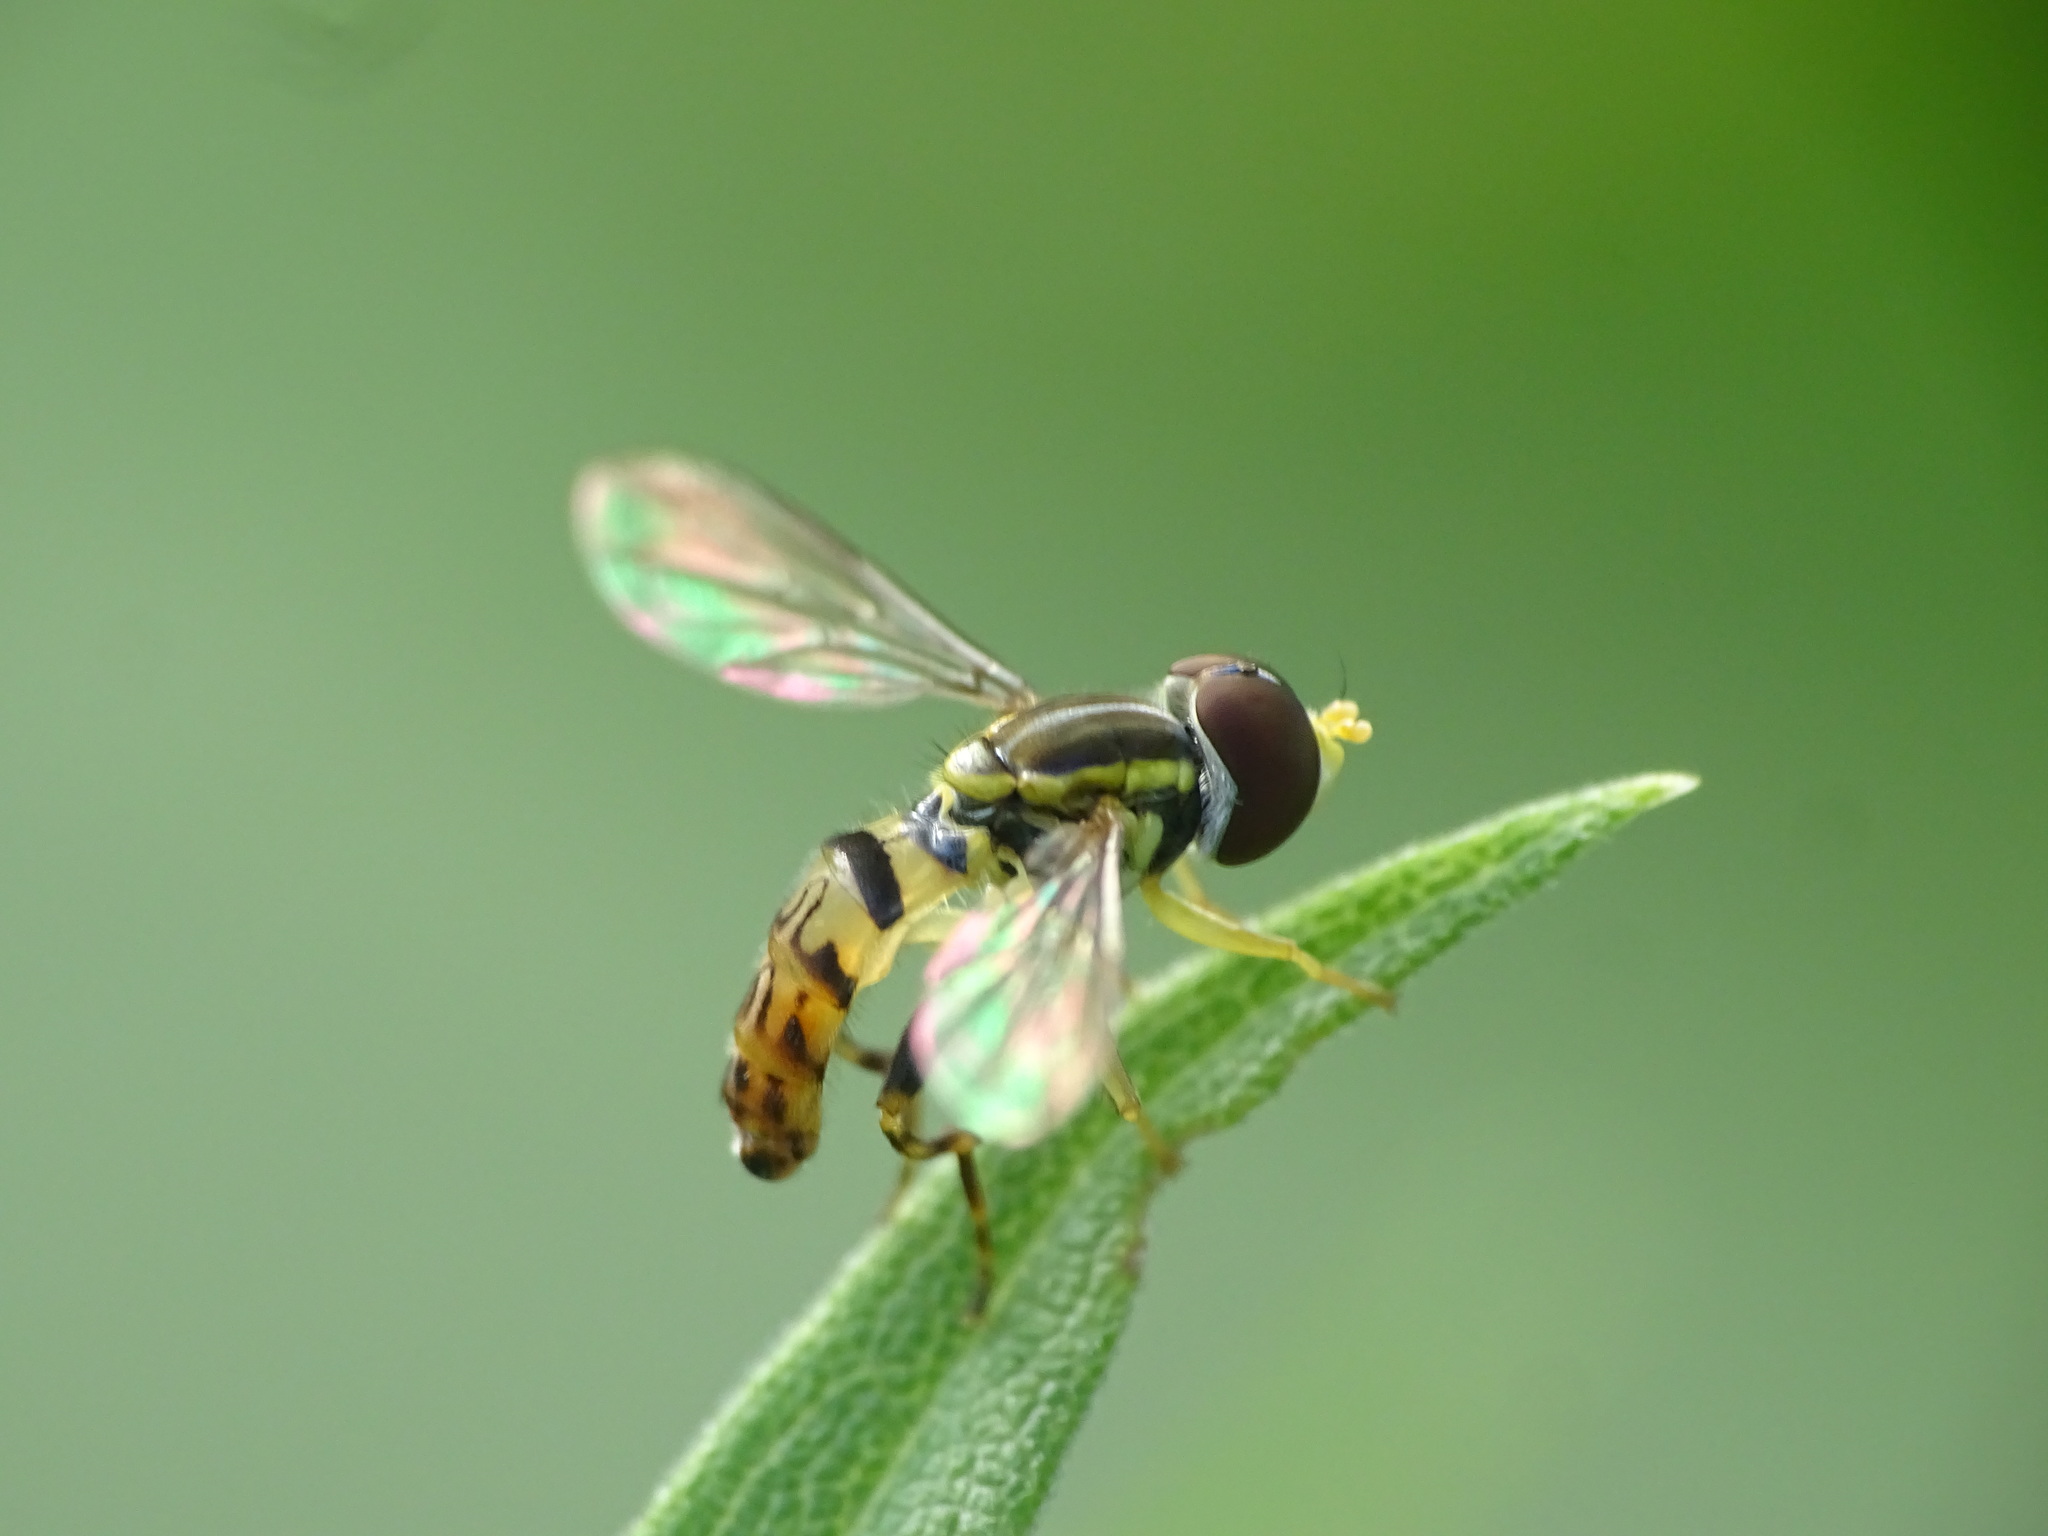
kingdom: Animalia
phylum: Arthropoda
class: Insecta
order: Diptera
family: Syrphidae
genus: Toxomerus
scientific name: Toxomerus geminatus
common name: Eastern calligrapher
